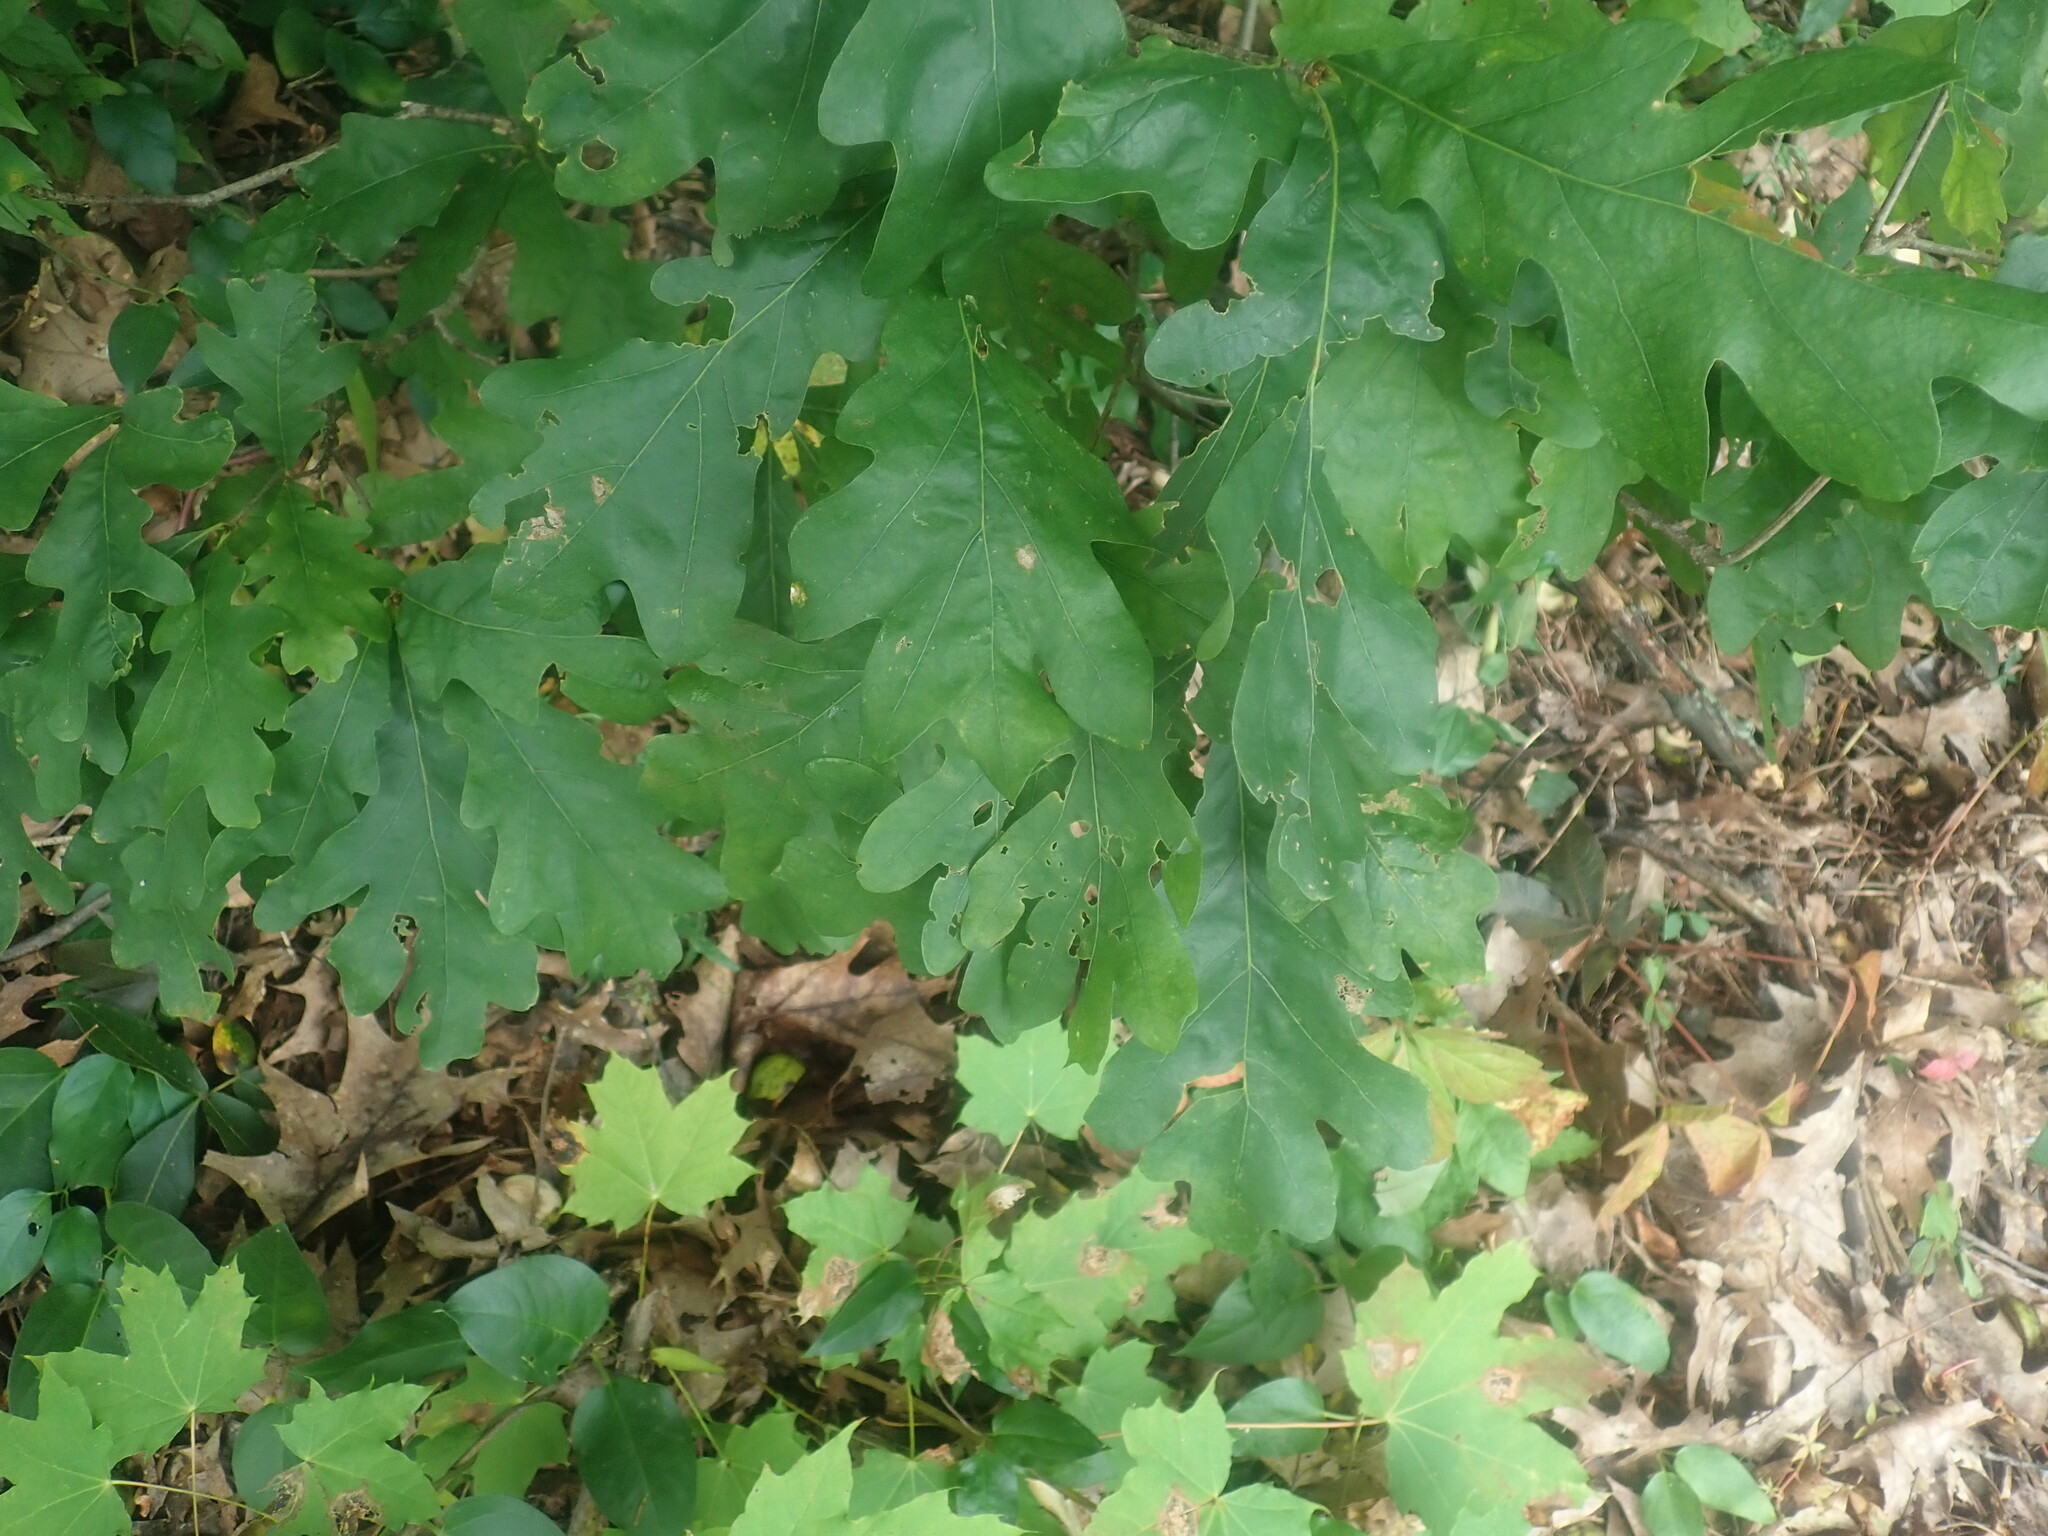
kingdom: Plantae
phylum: Tracheophyta
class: Magnoliopsida
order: Fagales
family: Fagaceae
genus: Quercus
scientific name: Quercus alba
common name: White oak
